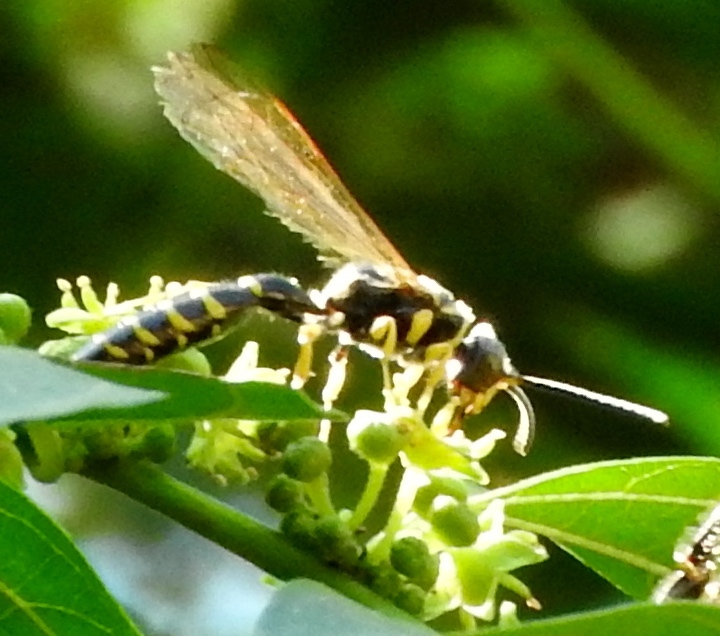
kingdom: Animalia
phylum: Arthropoda
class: Insecta
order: Hymenoptera
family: Tiphiidae
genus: Myzinum
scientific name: Myzinum
